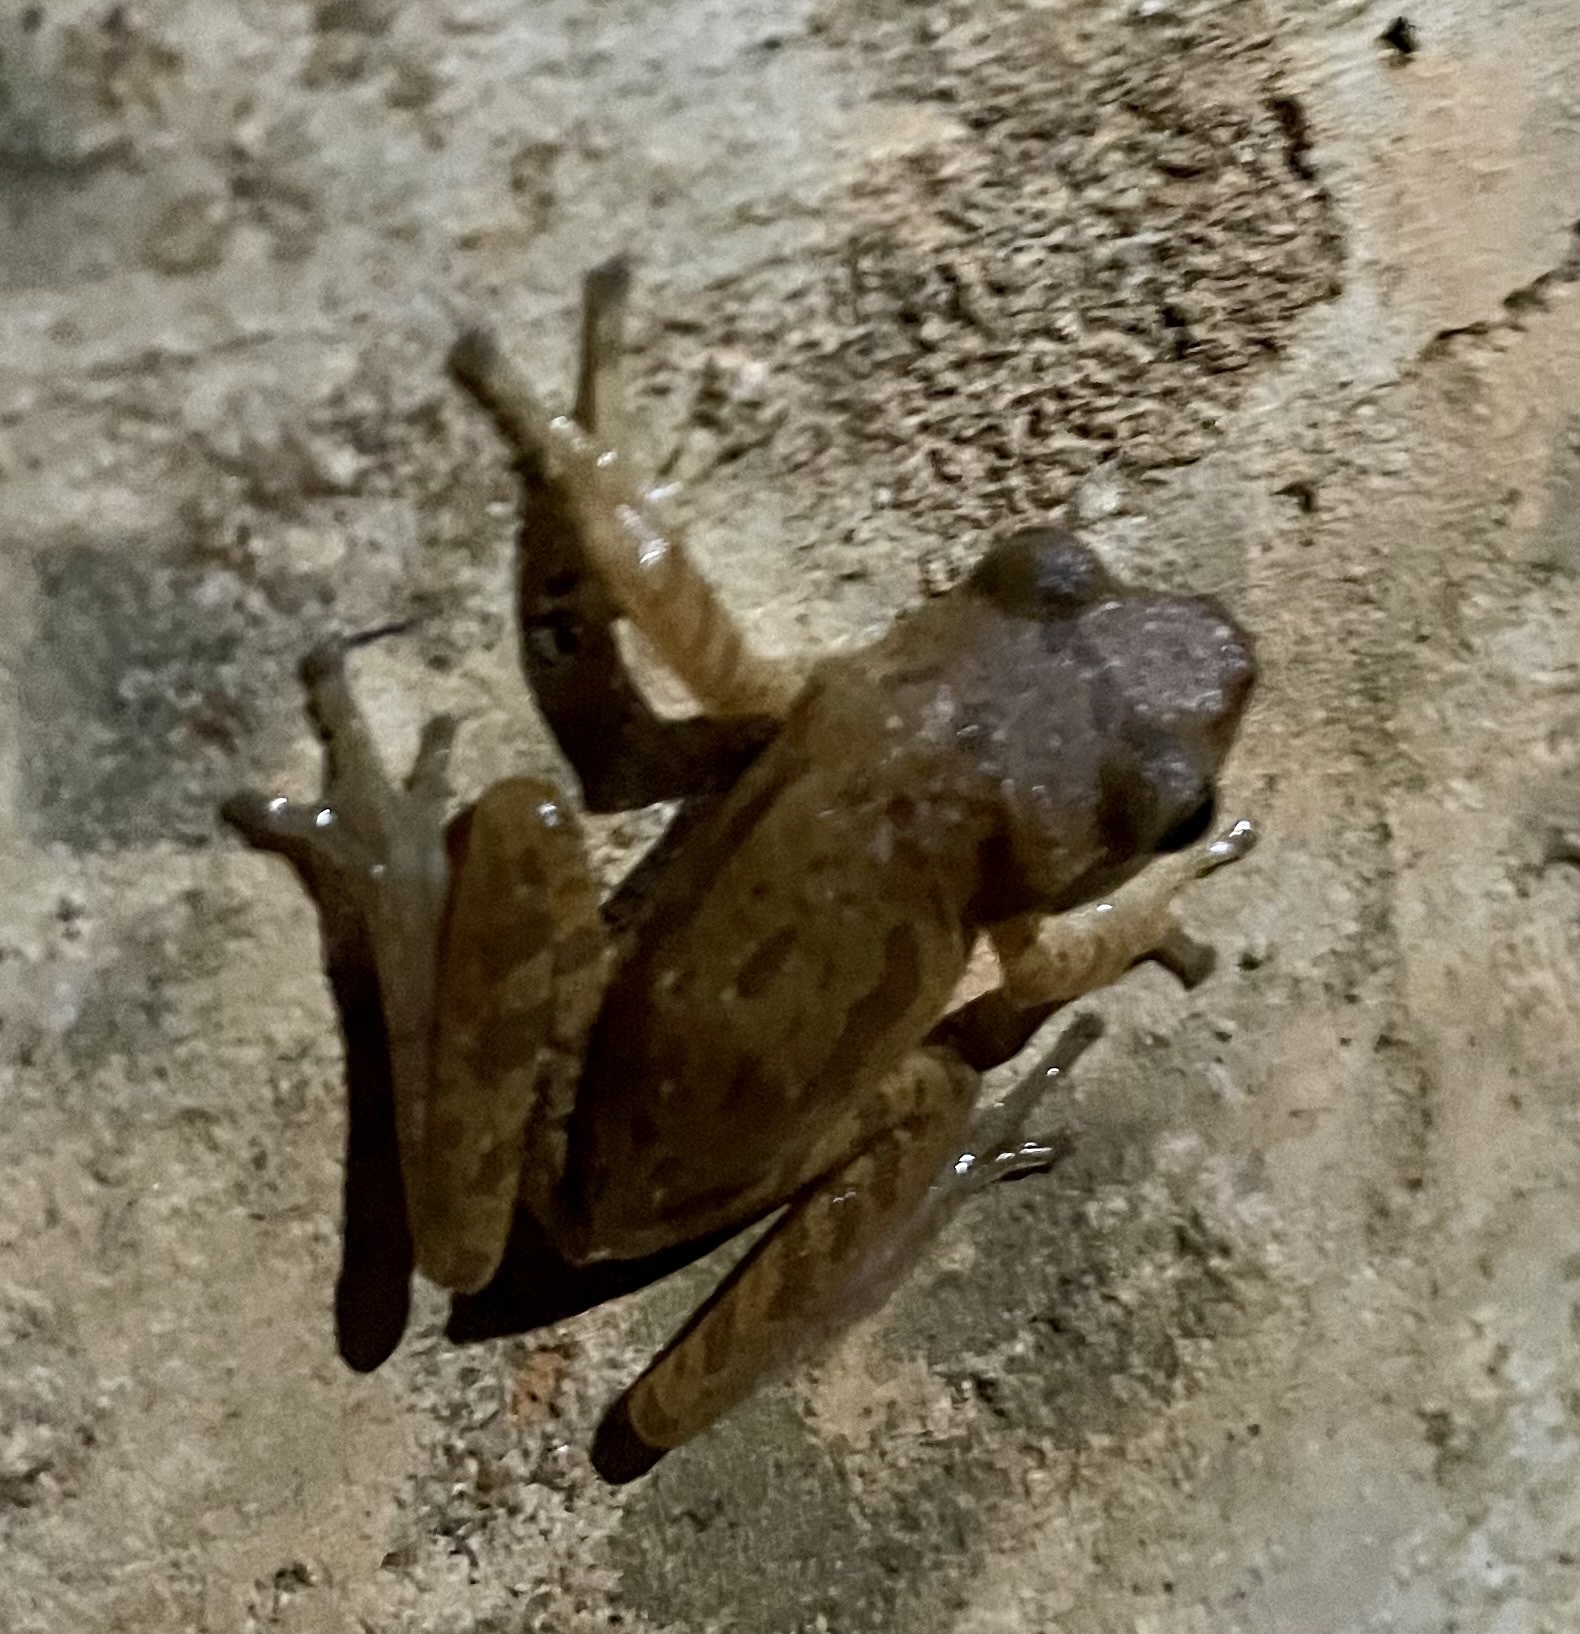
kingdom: Animalia
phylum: Chordata
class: Amphibia
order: Anura
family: Rhacophoridae
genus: Polypedates
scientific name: Polypedates maculatus
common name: Himalayan tree frog
